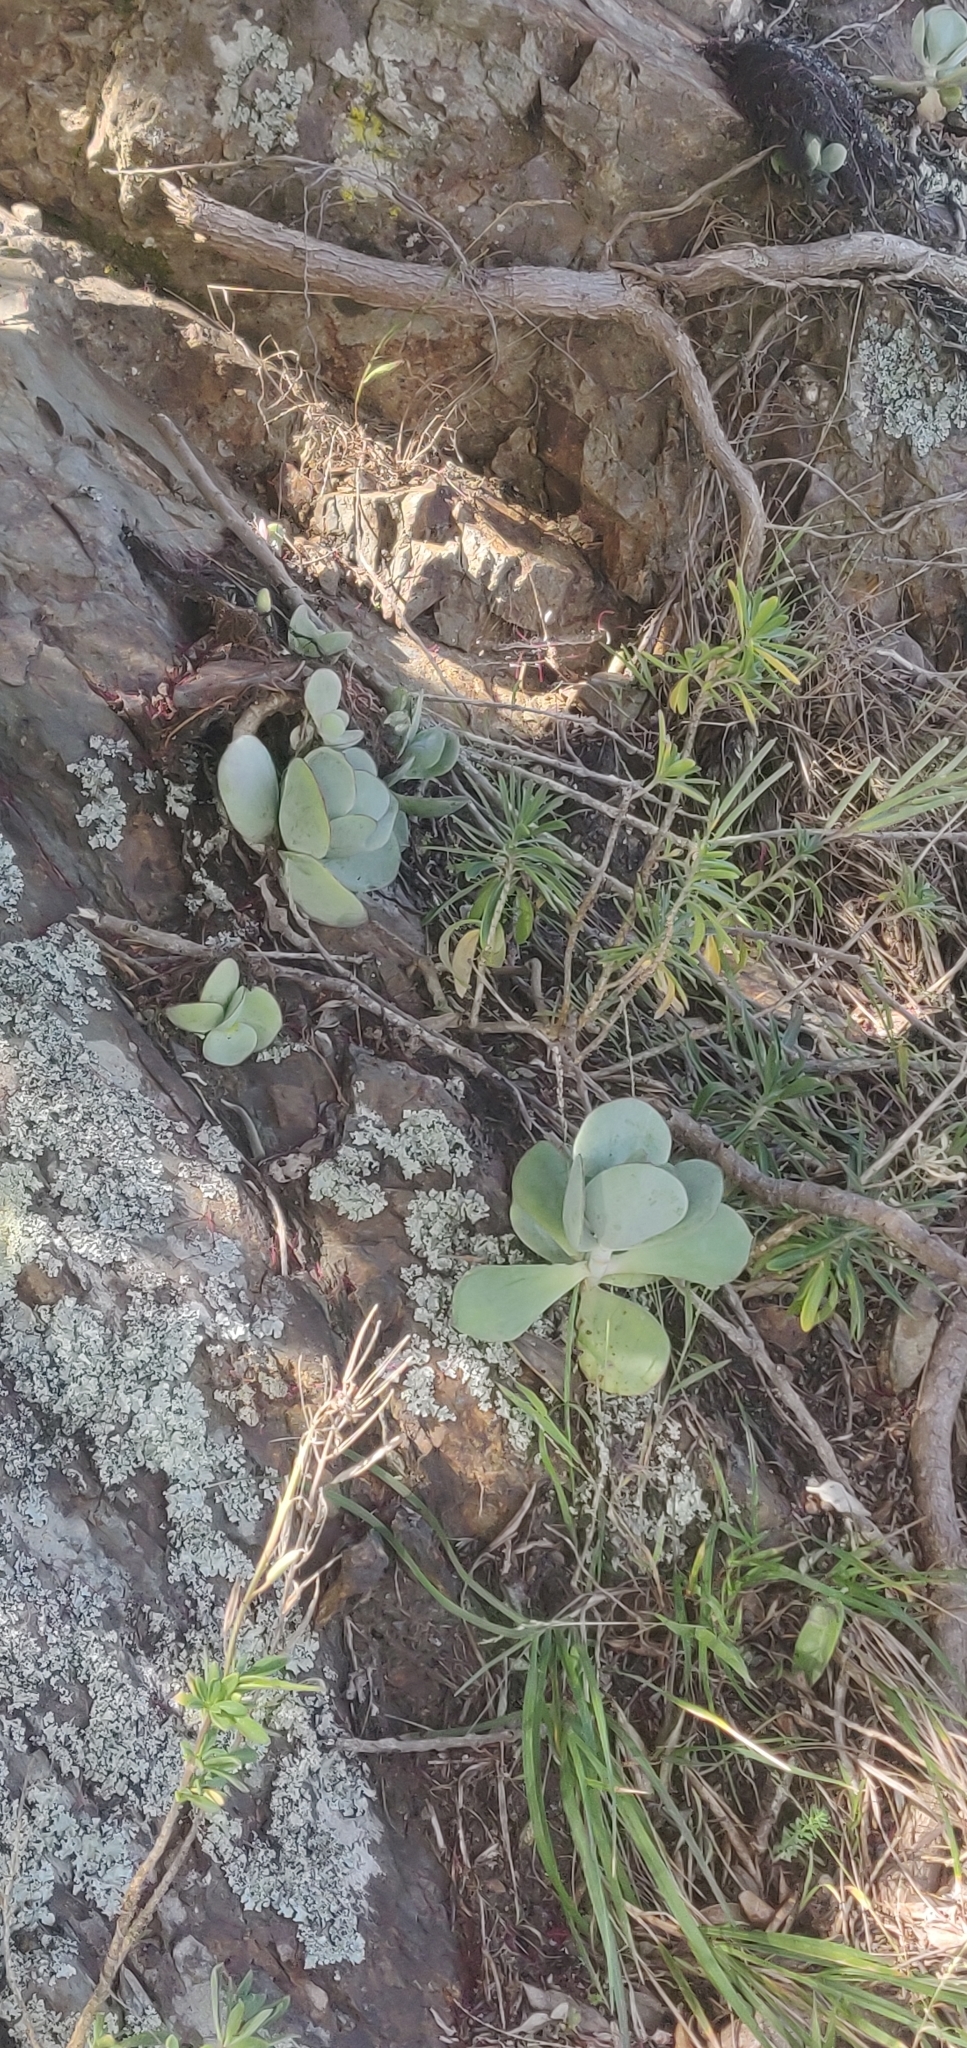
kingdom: Plantae
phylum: Tracheophyta
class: Magnoliopsida
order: Saxifragales
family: Crassulaceae
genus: Cotyledon
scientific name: Cotyledon orbiculata
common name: Pig's ear
